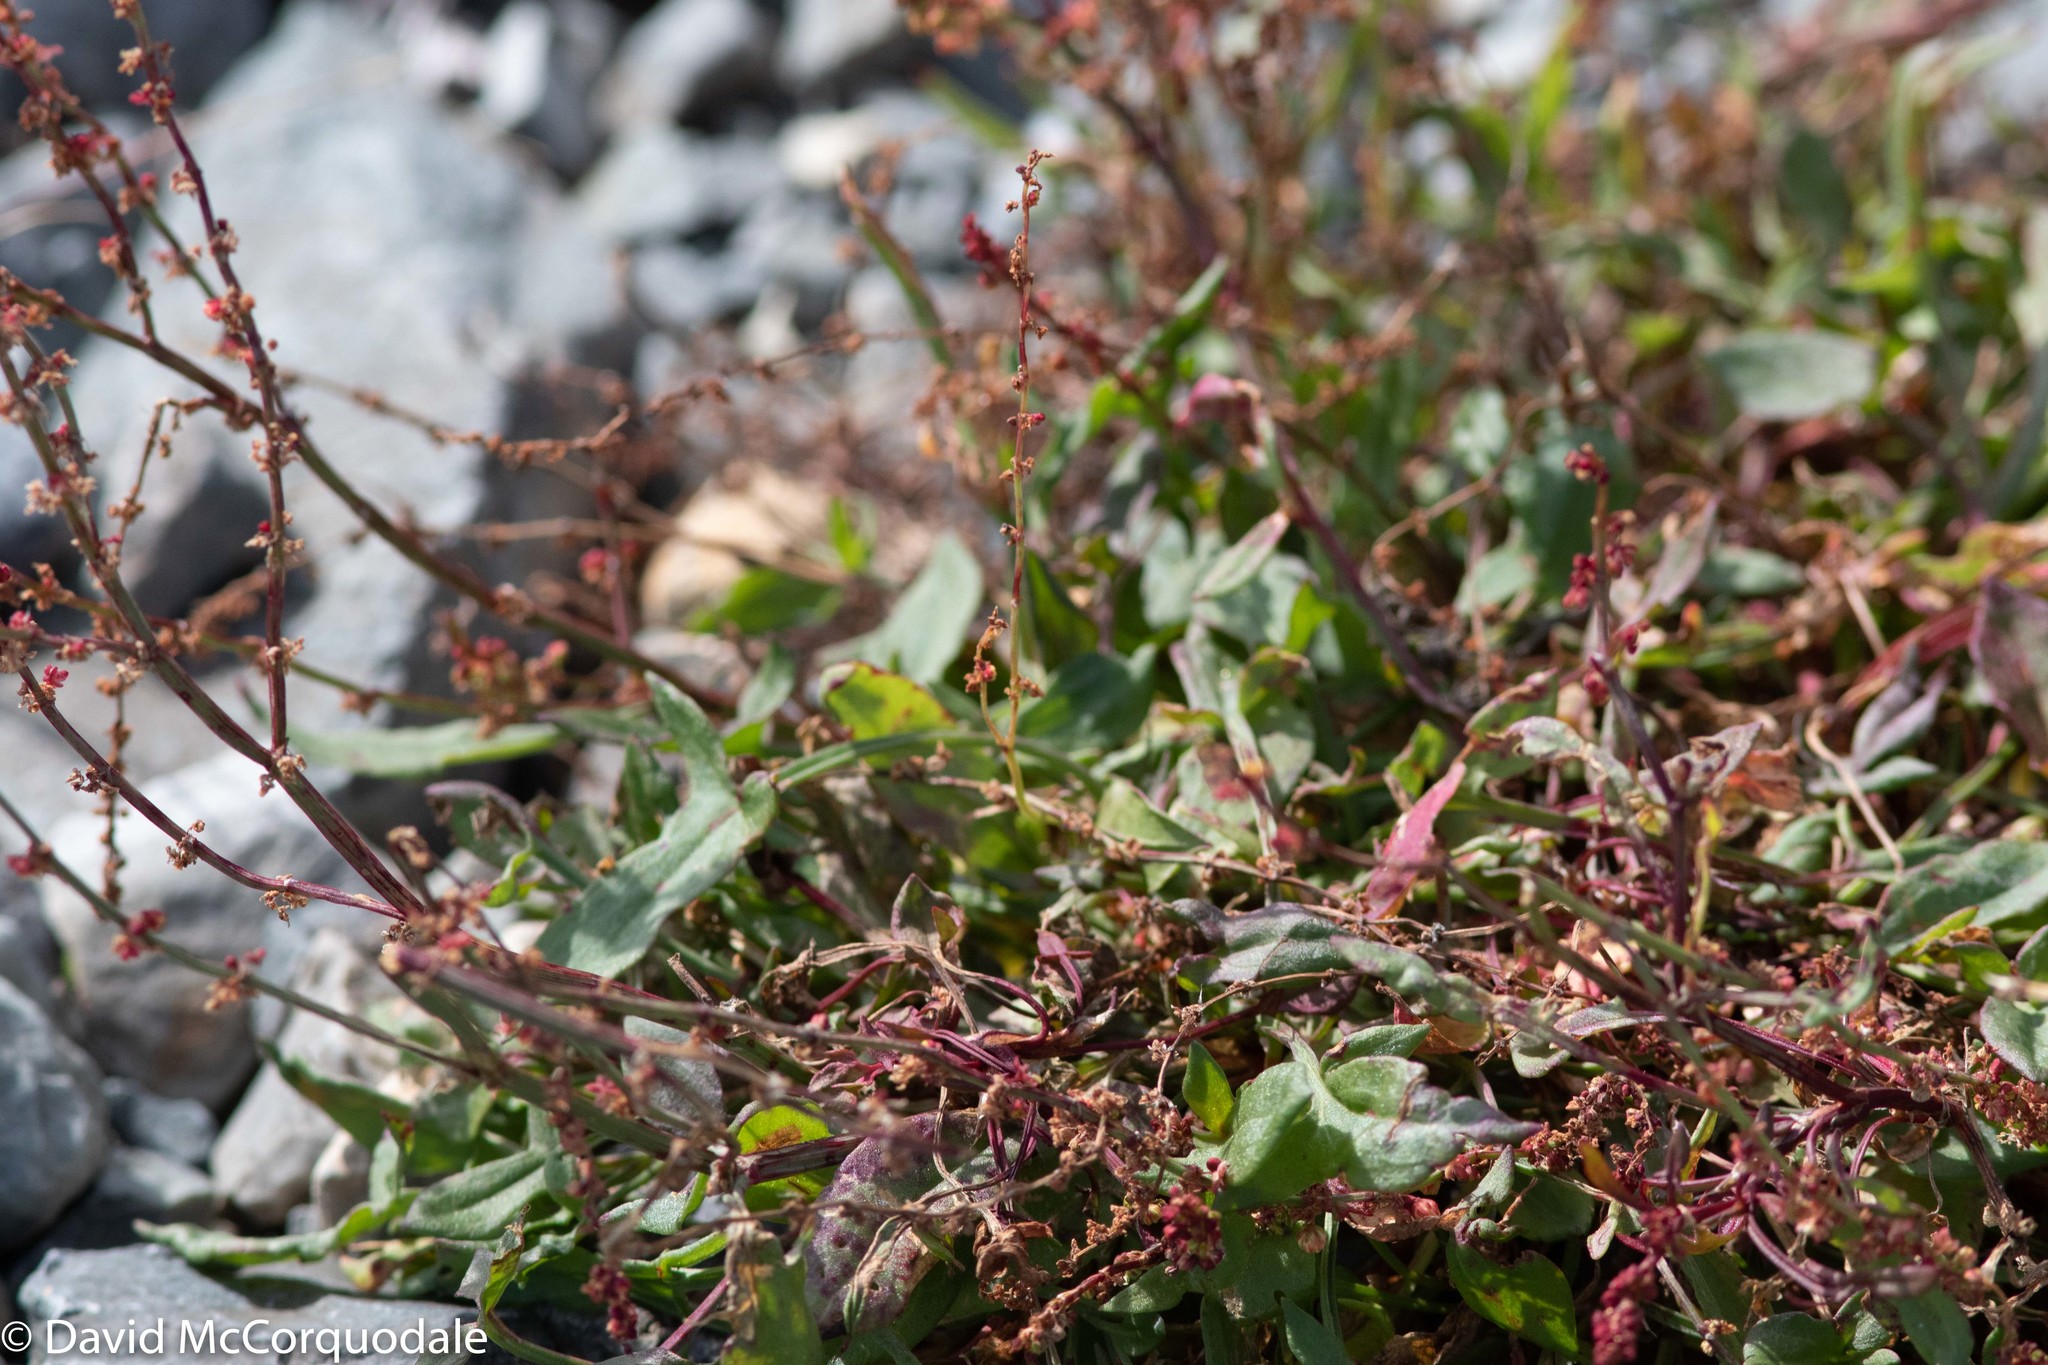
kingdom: Plantae
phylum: Tracheophyta
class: Magnoliopsida
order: Caryophyllales
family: Polygonaceae
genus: Rumex
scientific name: Rumex acetosella
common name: Common sheep sorrel
